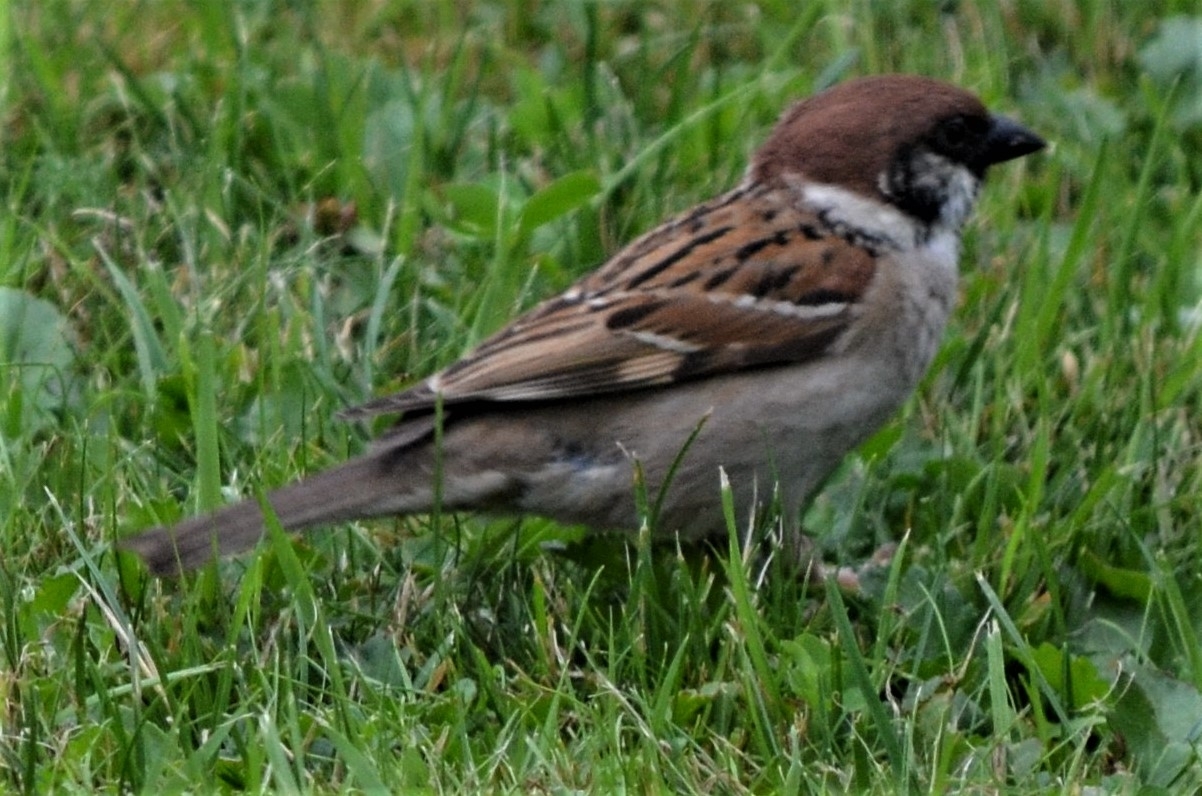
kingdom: Animalia
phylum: Chordata
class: Aves
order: Passeriformes
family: Passeridae
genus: Passer
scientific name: Passer montanus
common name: Eurasian tree sparrow
